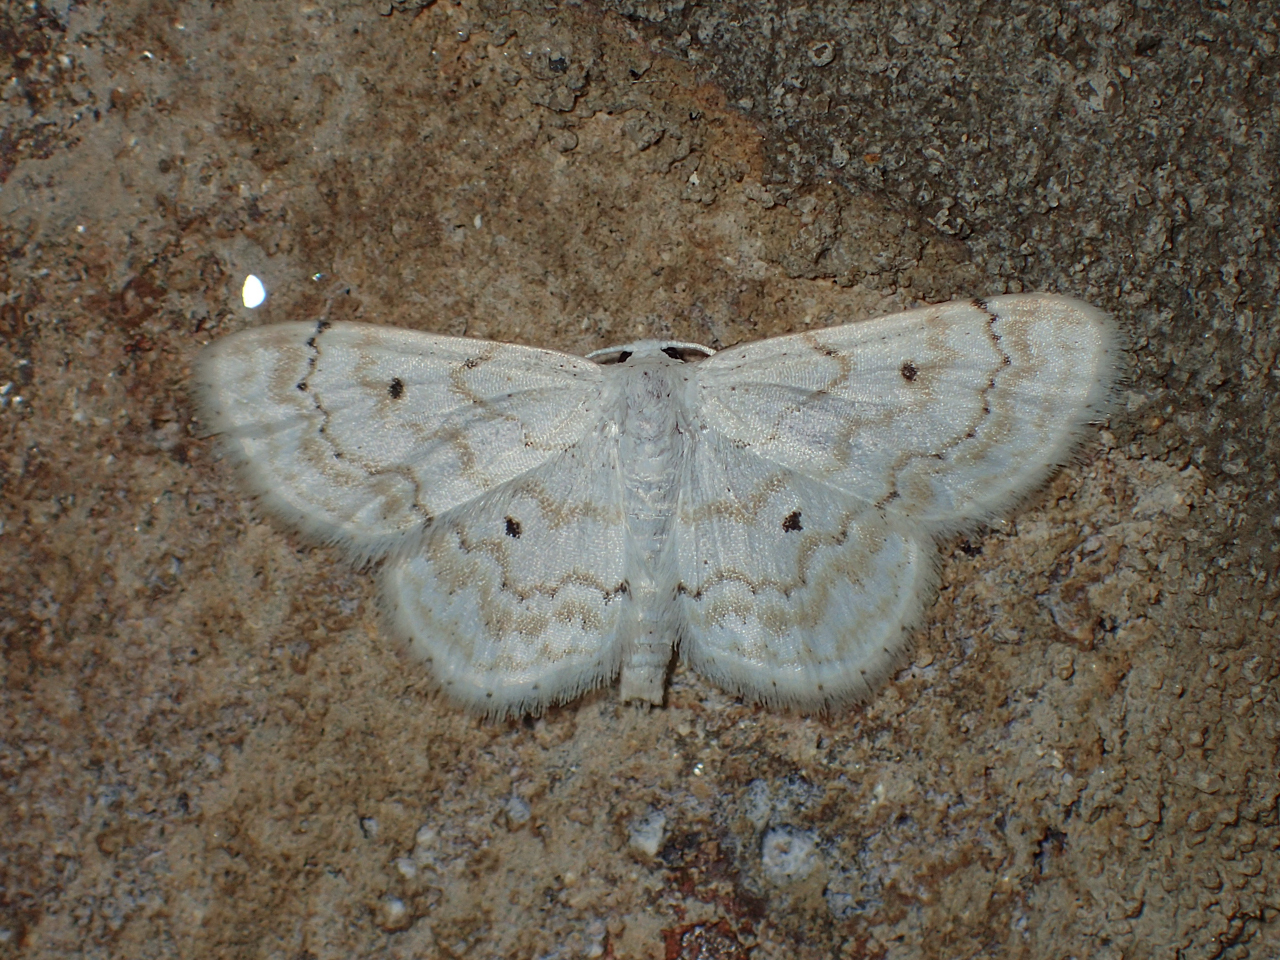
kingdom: Animalia
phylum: Arthropoda
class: Insecta
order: Lepidoptera
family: Geometridae
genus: Idaea
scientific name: Idaea obfusaria
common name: Rippled wave
